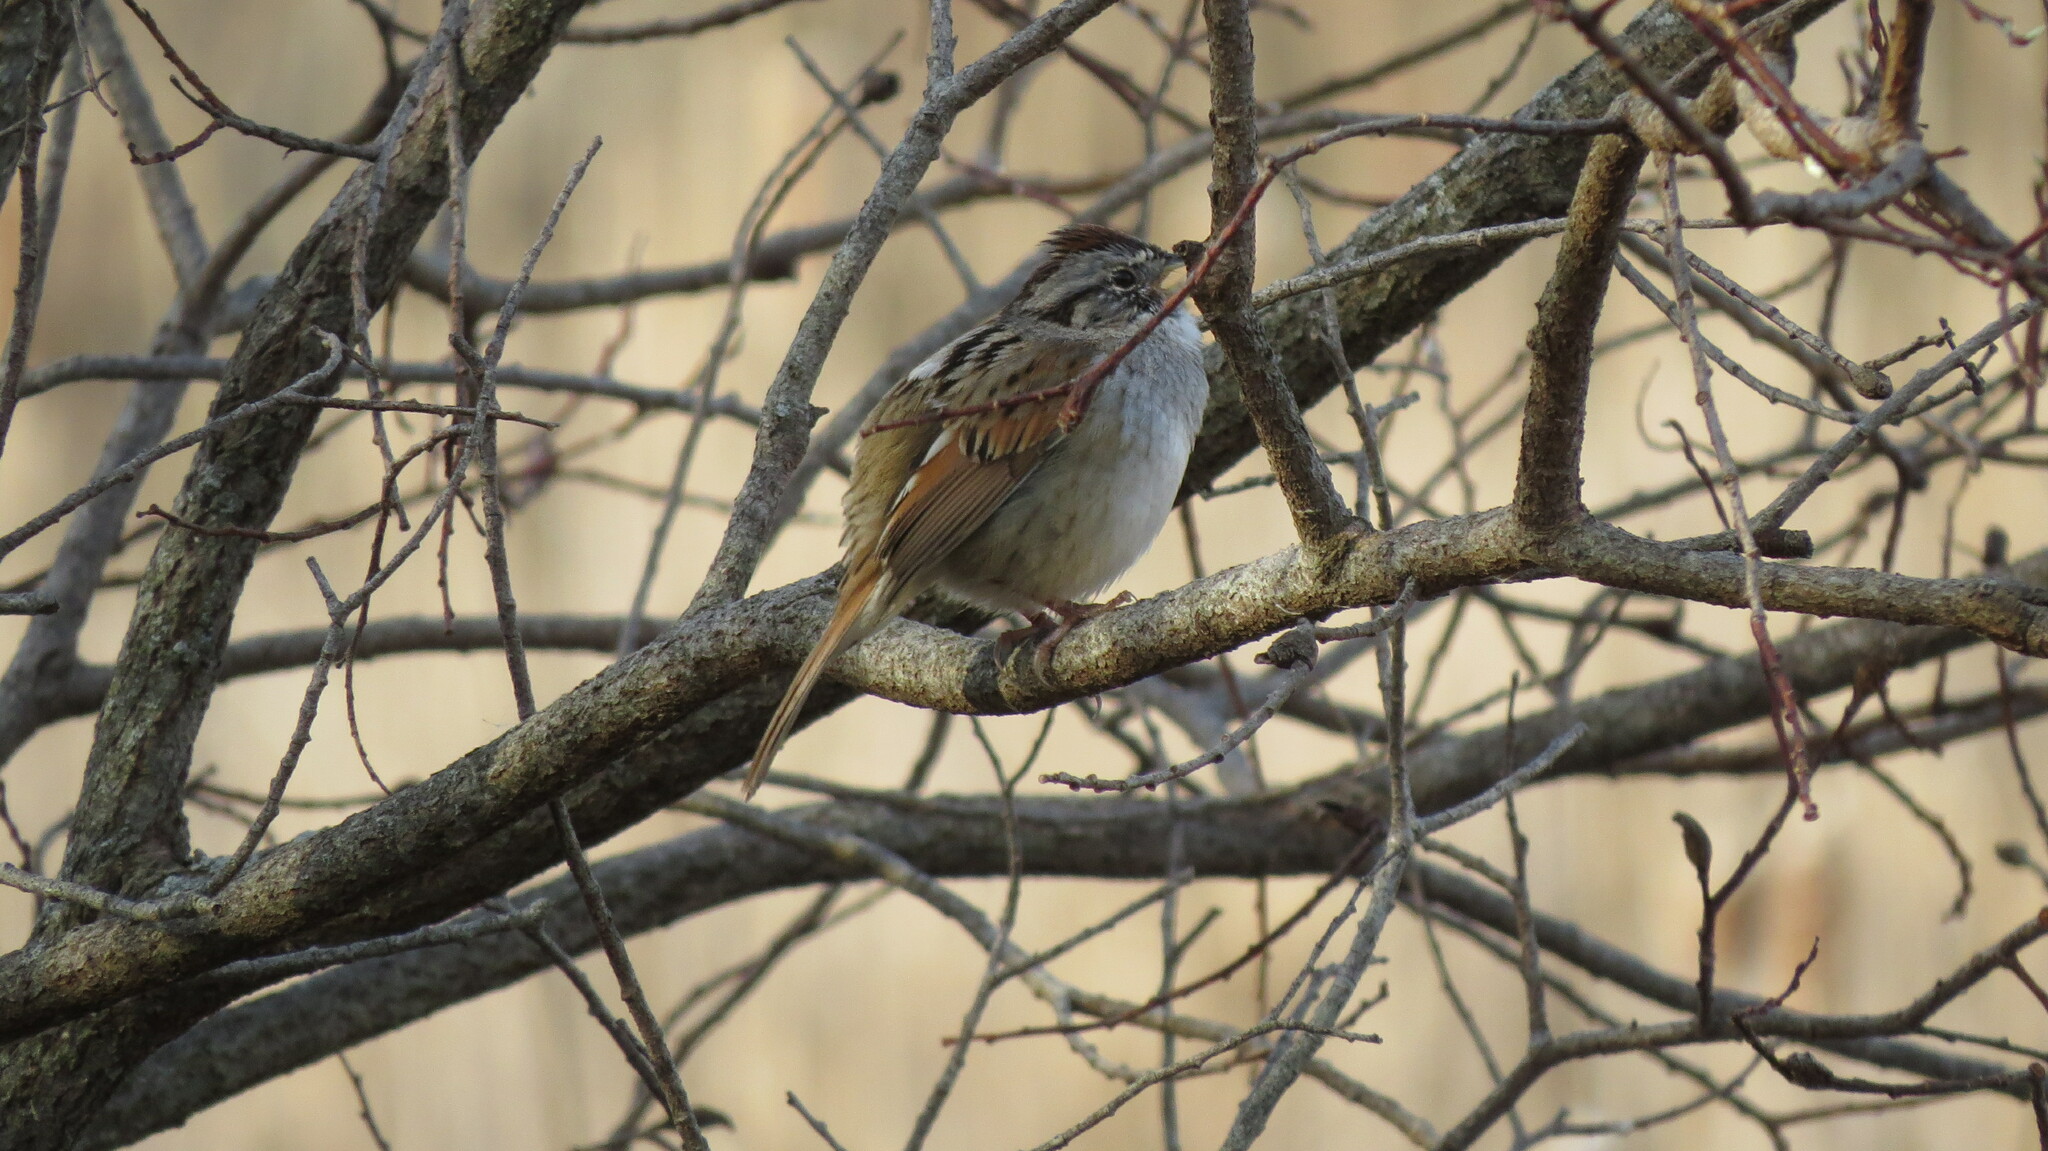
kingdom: Animalia
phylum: Chordata
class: Aves
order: Passeriformes
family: Passerellidae
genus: Melospiza
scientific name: Melospiza georgiana
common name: Swamp sparrow
